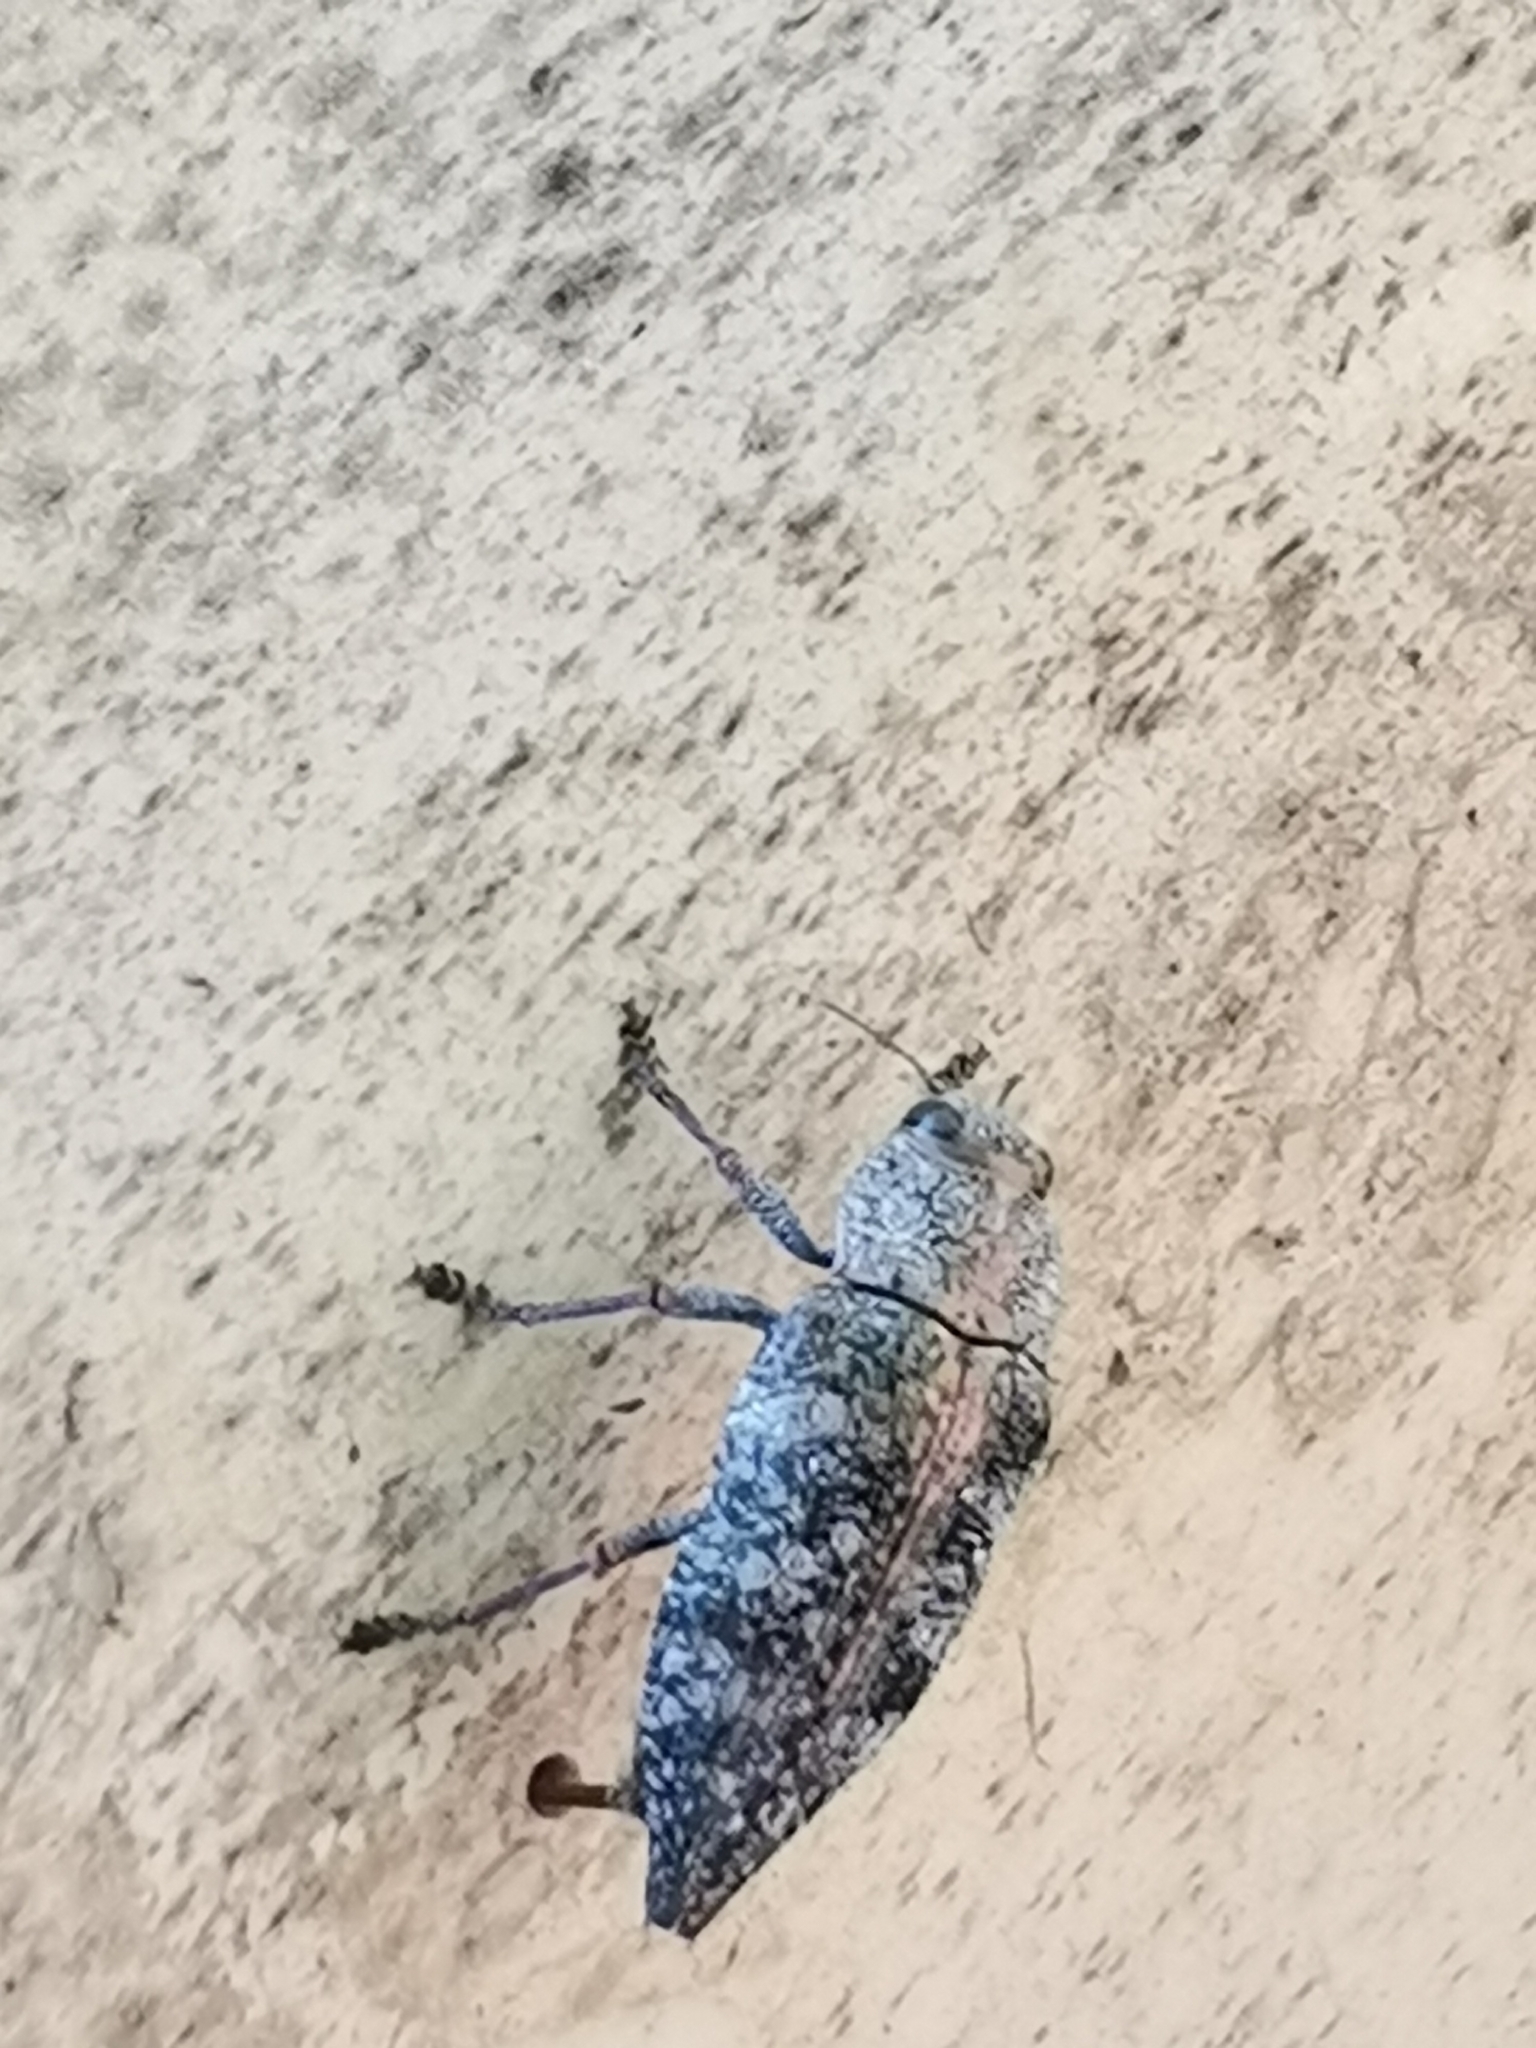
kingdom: Animalia
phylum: Arthropoda
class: Insecta
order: Coleoptera
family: Buprestidae
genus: Dicerca
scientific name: Dicerca aenea
